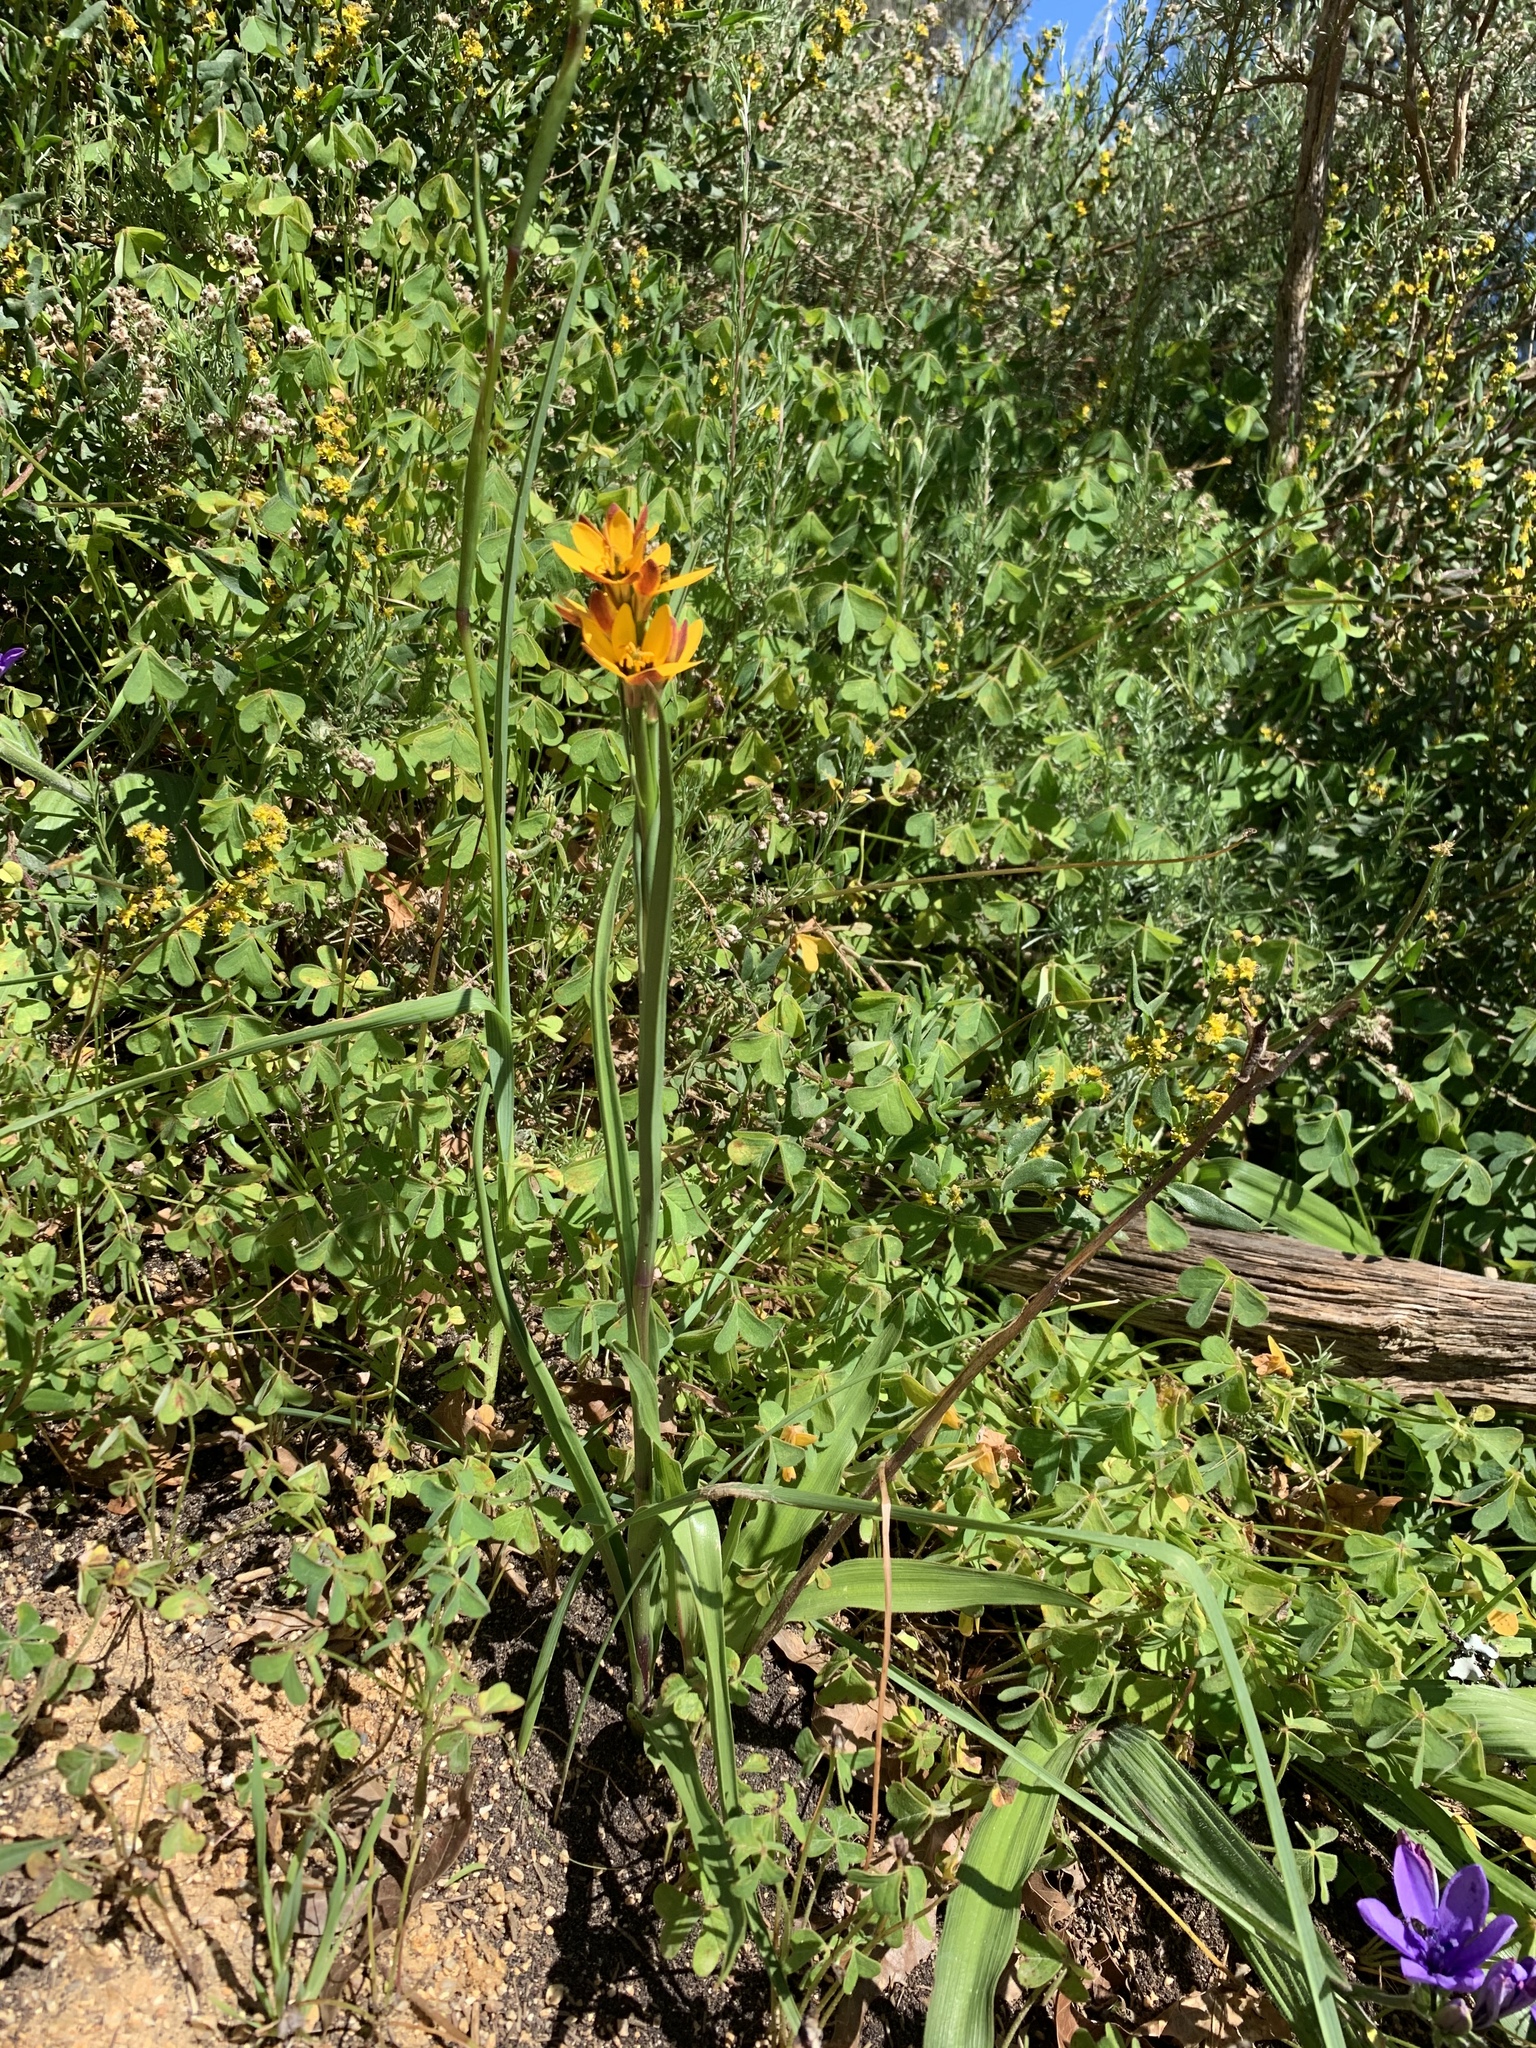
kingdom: Plantae
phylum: Tracheophyta
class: Liliopsida
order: Liliales
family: Colchicaceae
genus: Baeometra
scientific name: Baeometra uniflora
